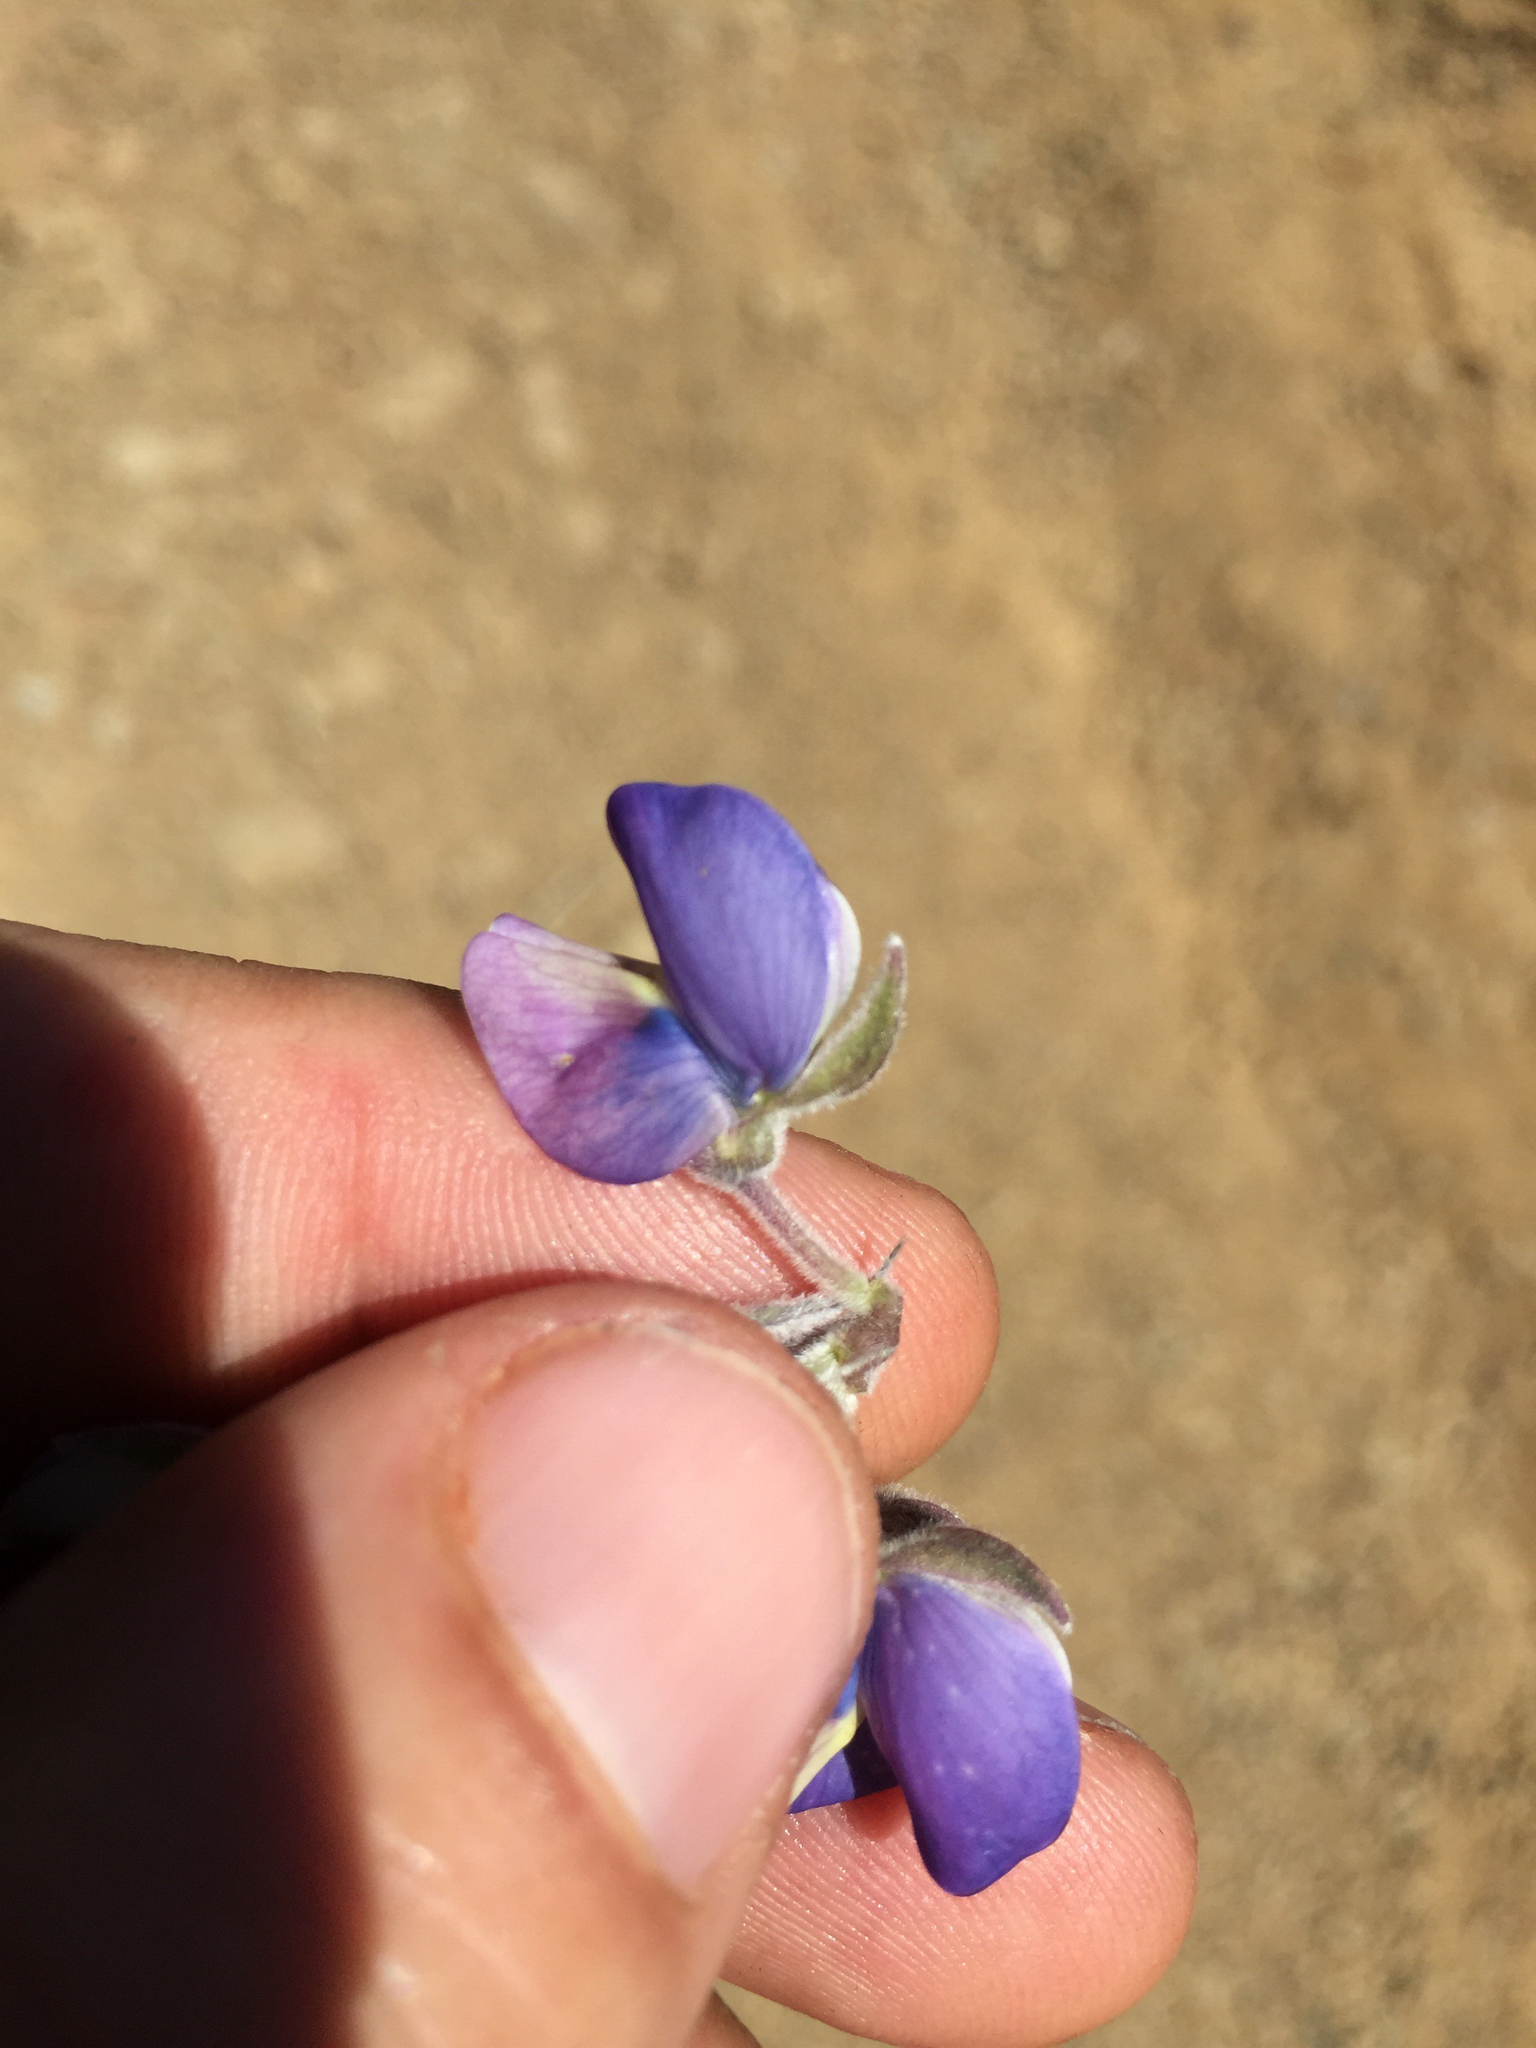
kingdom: Plantae
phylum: Tracheophyta
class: Magnoliopsida
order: Fabales
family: Fabaceae
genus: Lupinus
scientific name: Lupinus albifrons
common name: Foothill lupine
